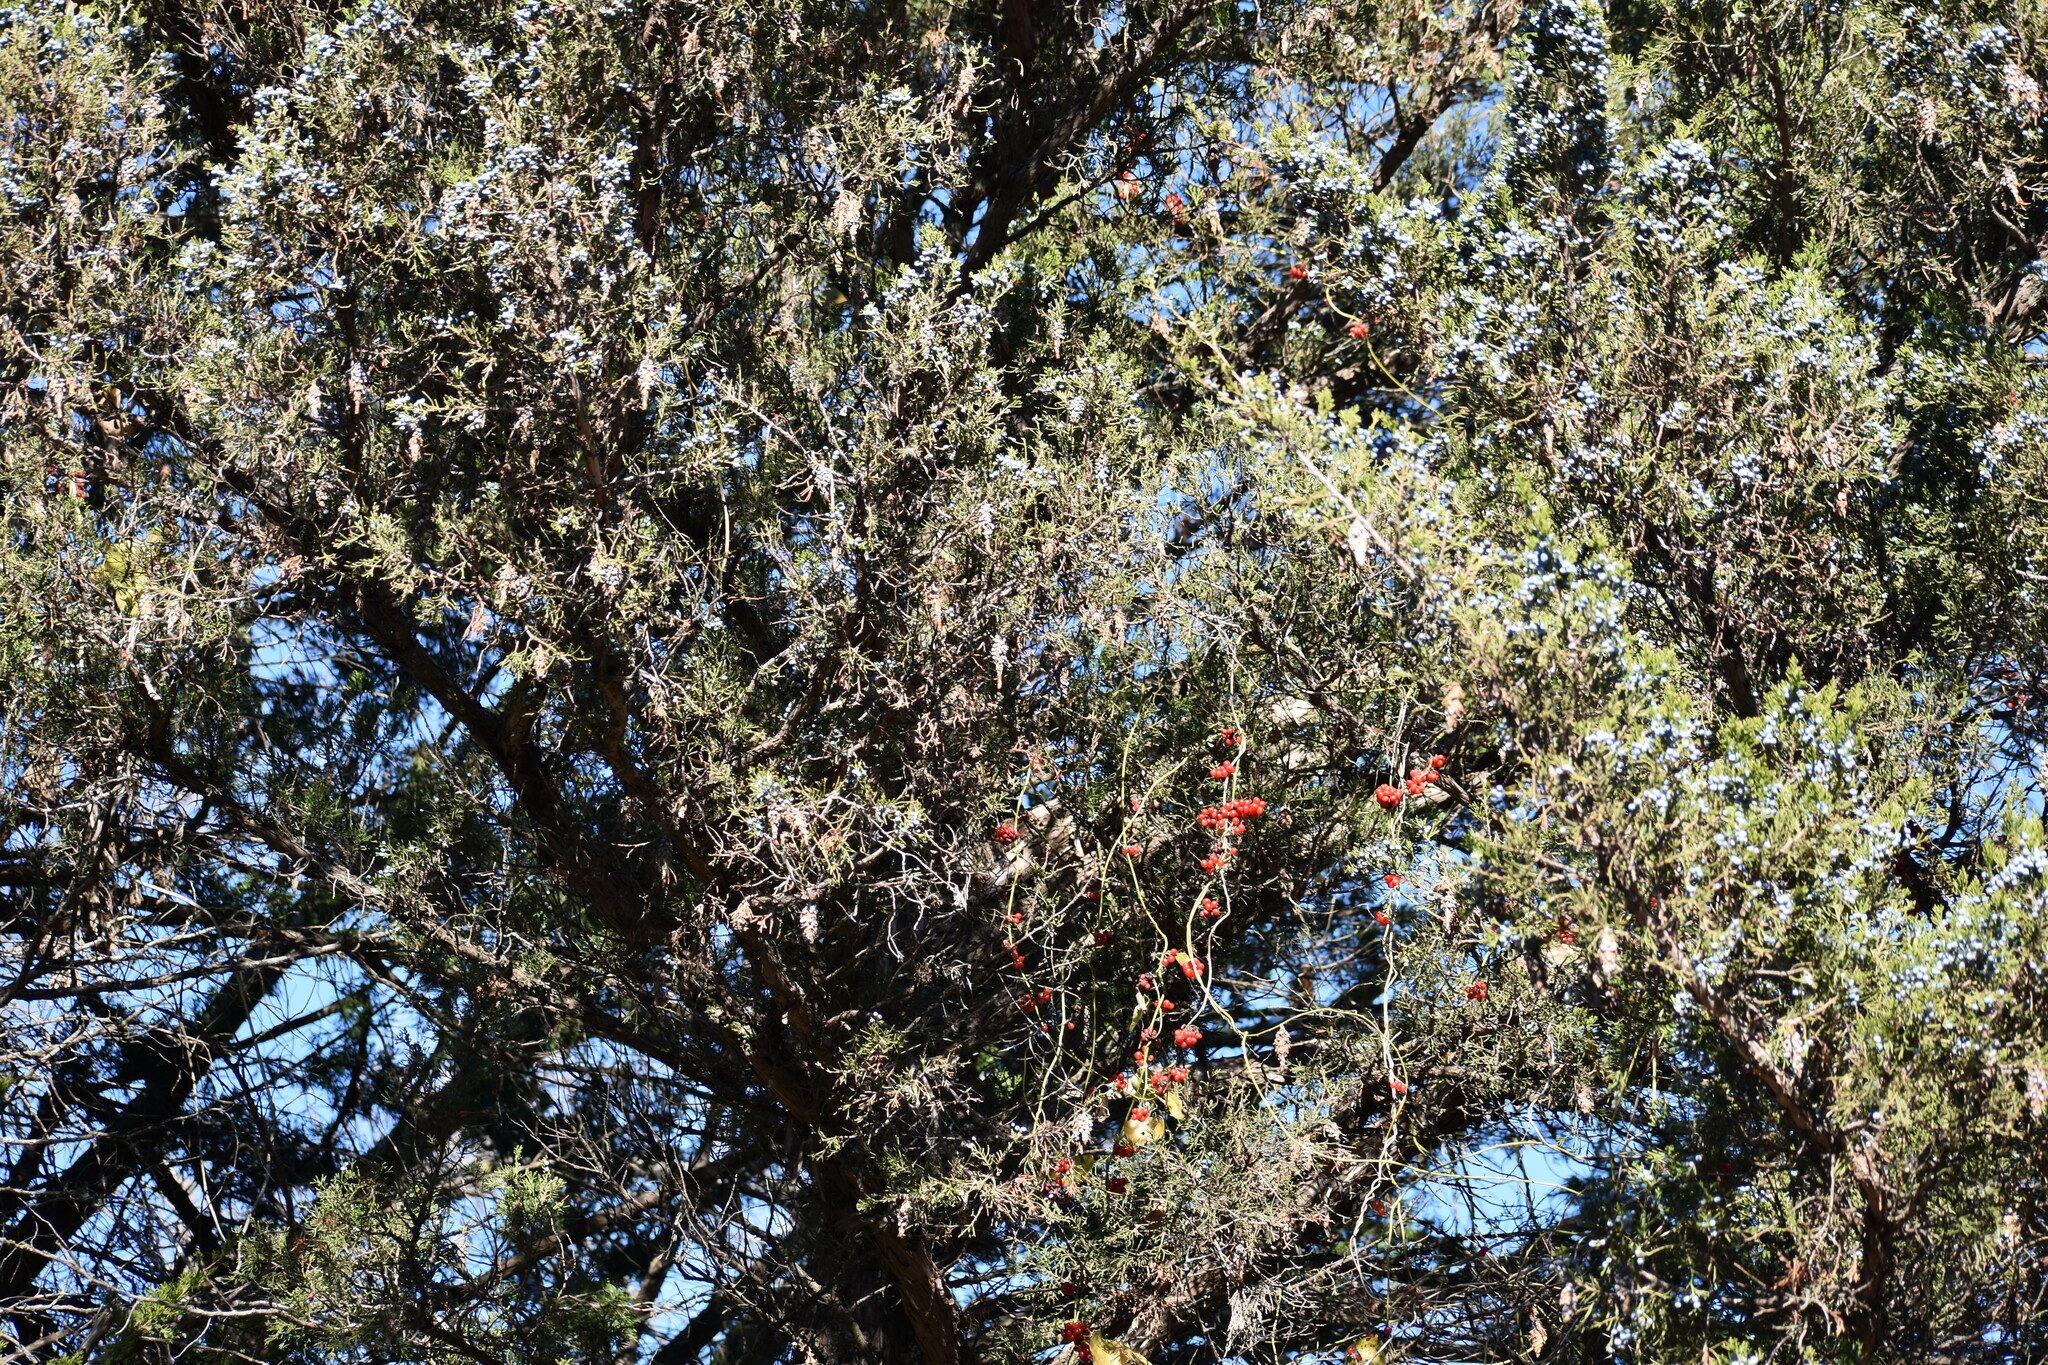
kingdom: Plantae
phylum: Tracheophyta
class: Magnoliopsida
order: Ranunculales
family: Menispermaceae
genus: Cocculus
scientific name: Cocculus carolinus
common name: Carolina moonseed
